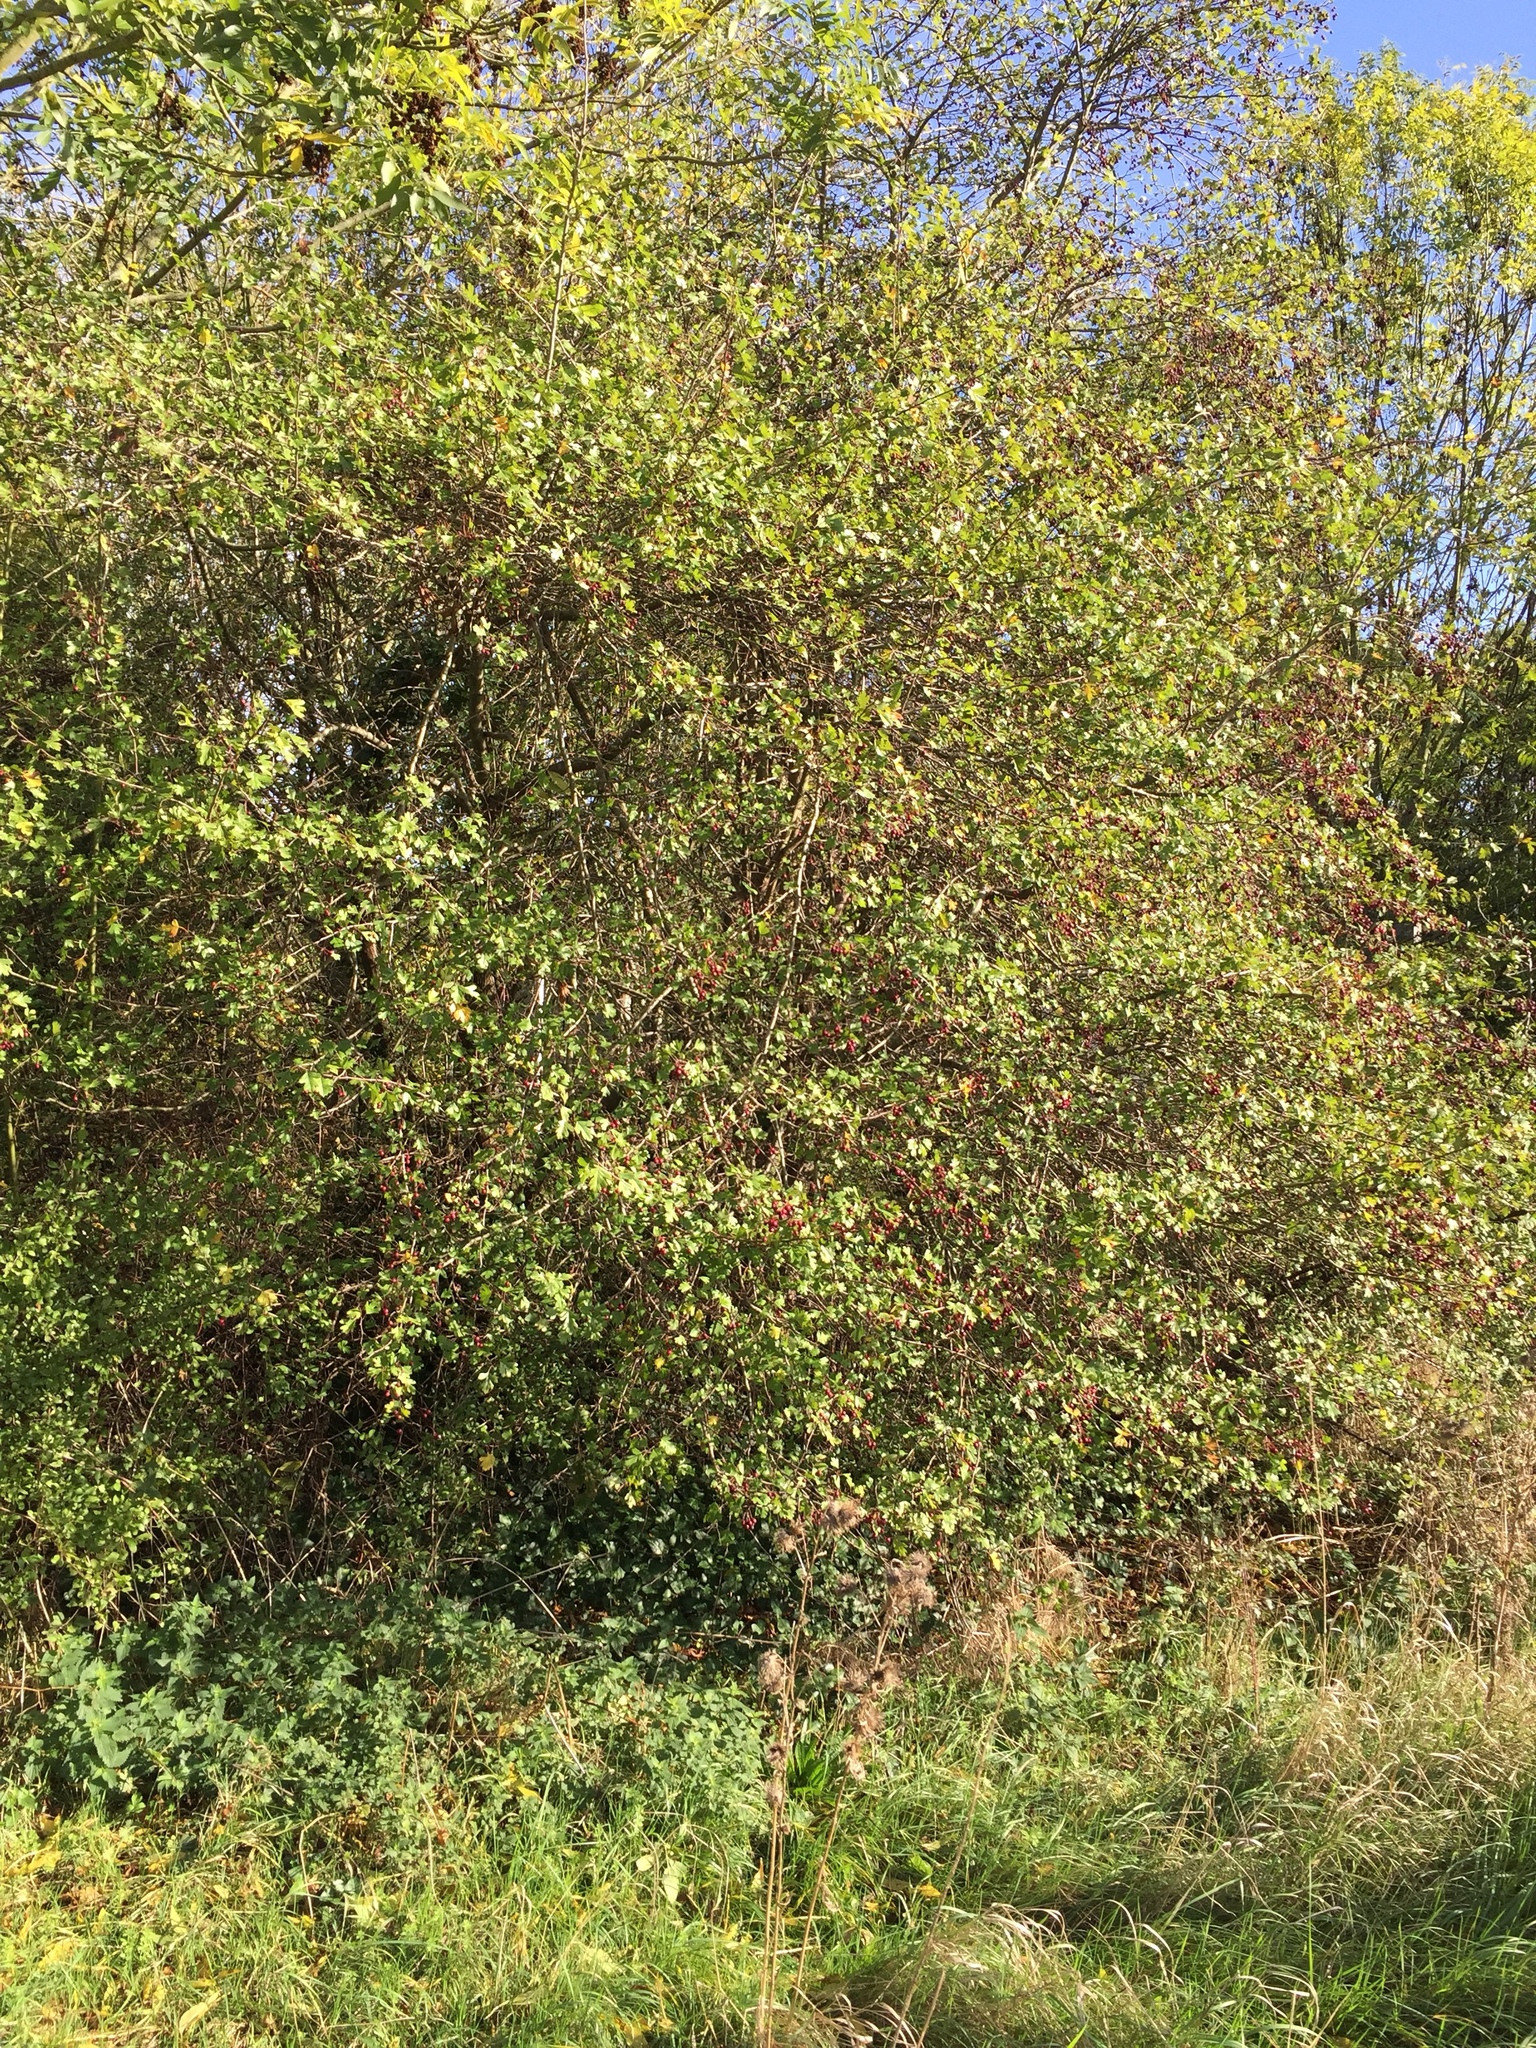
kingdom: Plantae
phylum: Tracheophyta
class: Magnoliopsida
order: Rosales
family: Rosaceae
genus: Crataegus
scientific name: Crataegus monogyna
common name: Hawthorn
